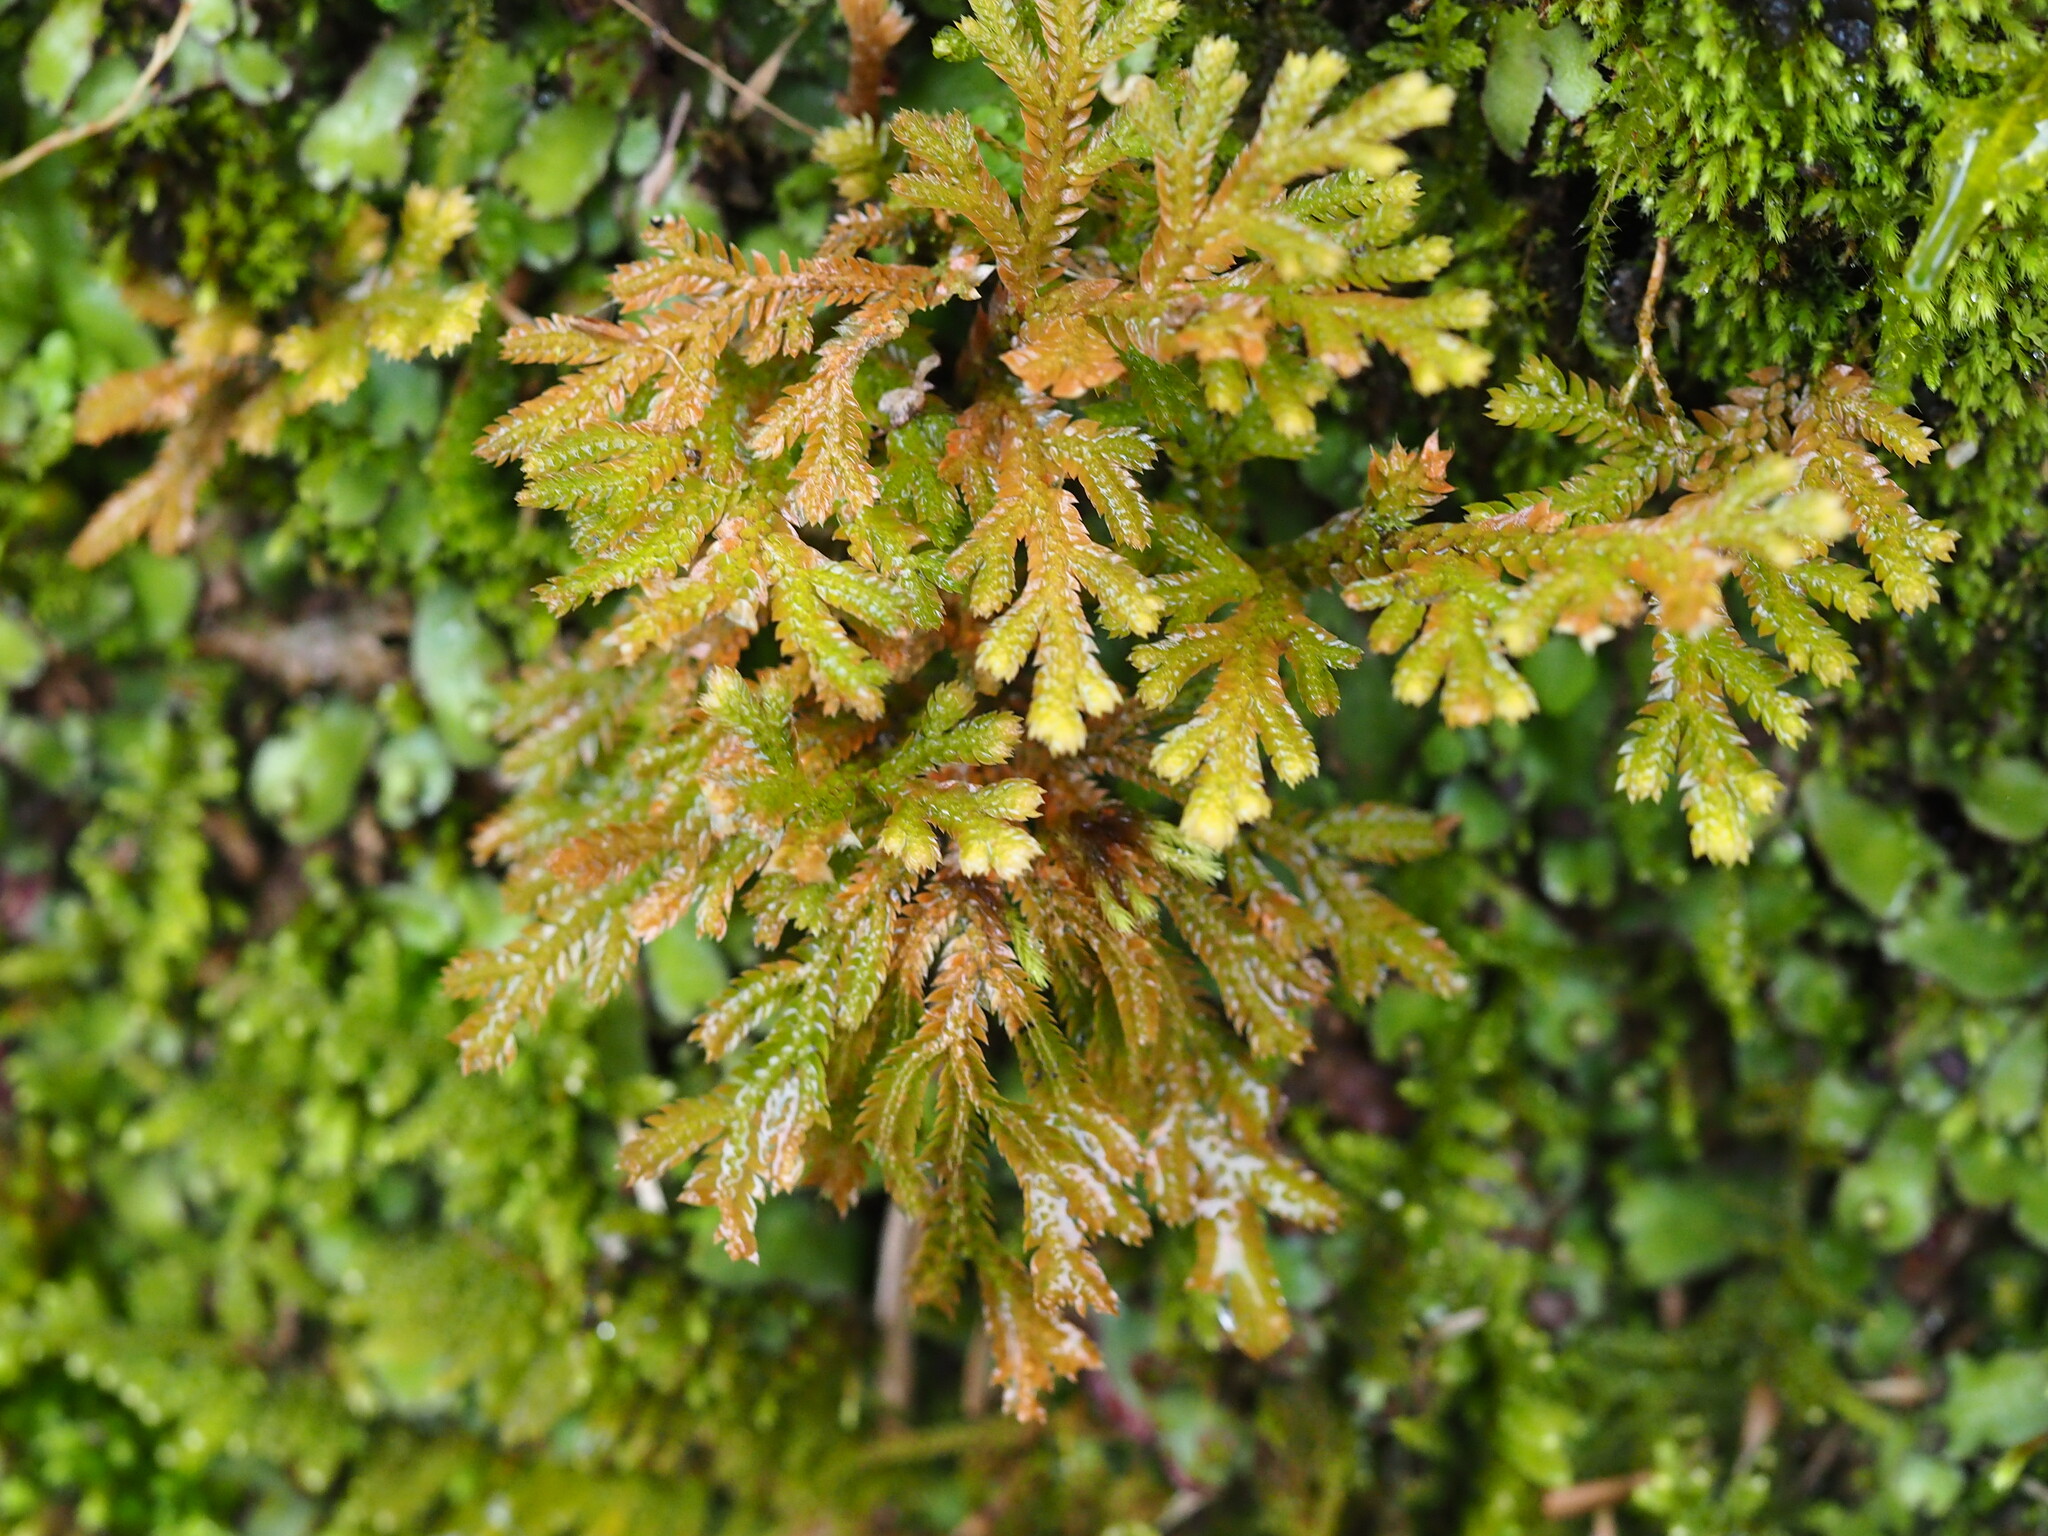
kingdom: Plantae
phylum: Tracheophyta
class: Lycopodiopsida
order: Selaginellales
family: Selaginellaceae
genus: Selaginella
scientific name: Selaginella moellendorffii
